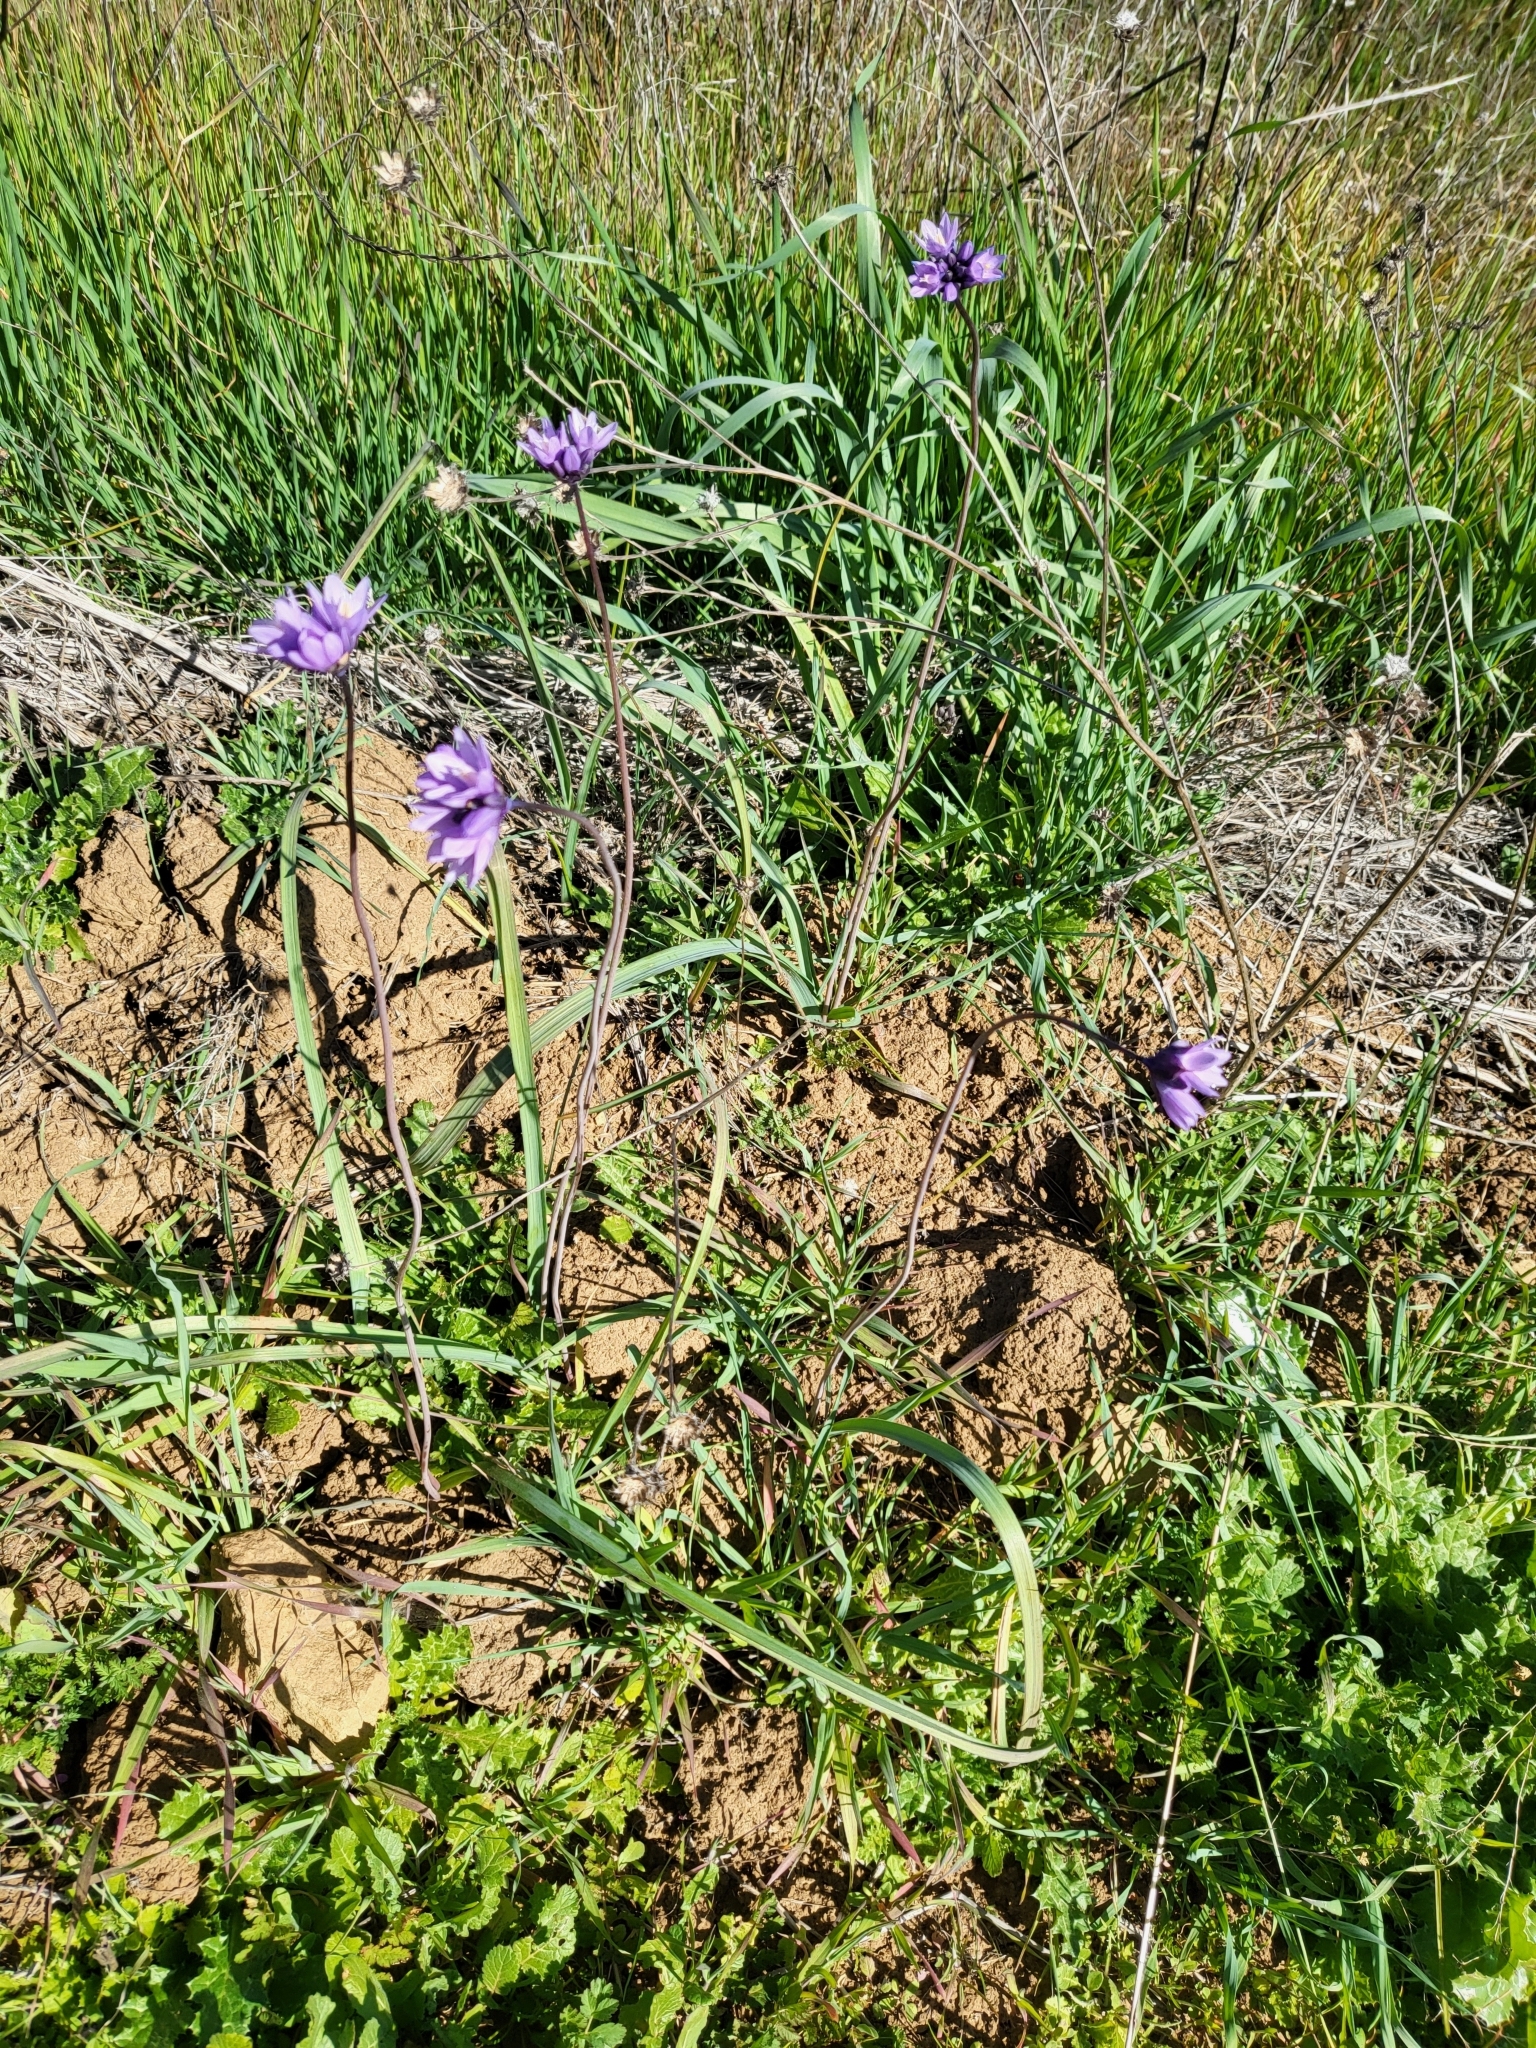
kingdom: Plantae
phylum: Tracheophyta
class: Liliopsida
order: Asparagales
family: Asparagaceae
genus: Dipterostemon
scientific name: Dipterostemon capitatus
